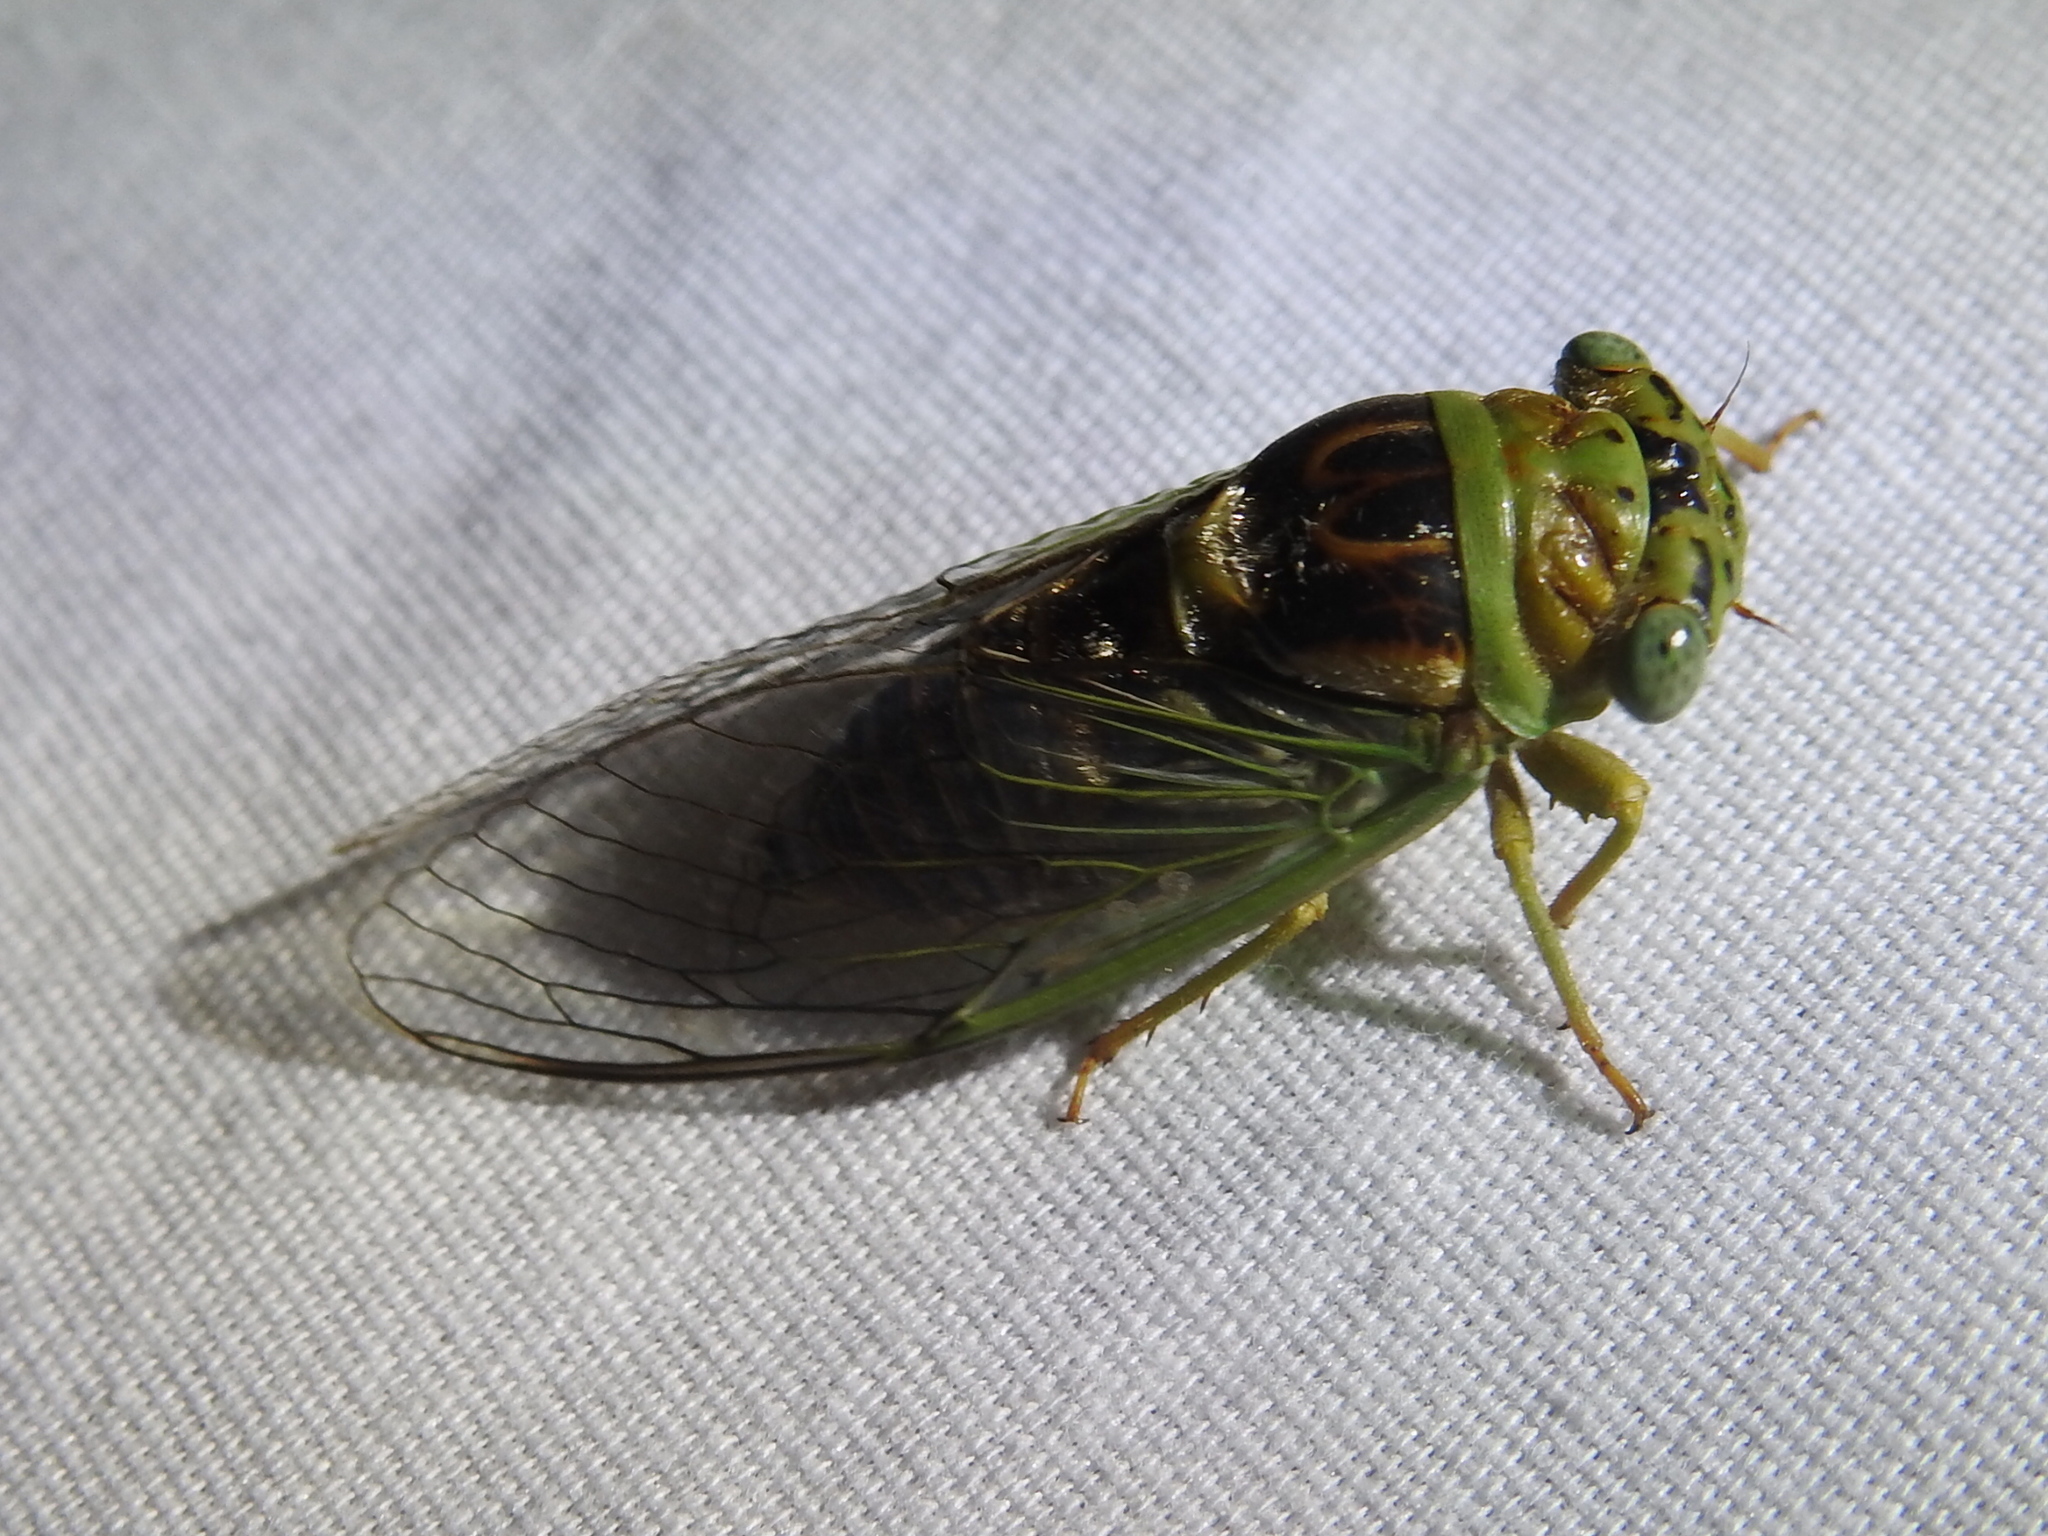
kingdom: Animalia
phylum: Arthropoda
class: Insecta
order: Hemiptera
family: Cicadidae
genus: Diceroprocta
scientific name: Diceroprocta azteca
